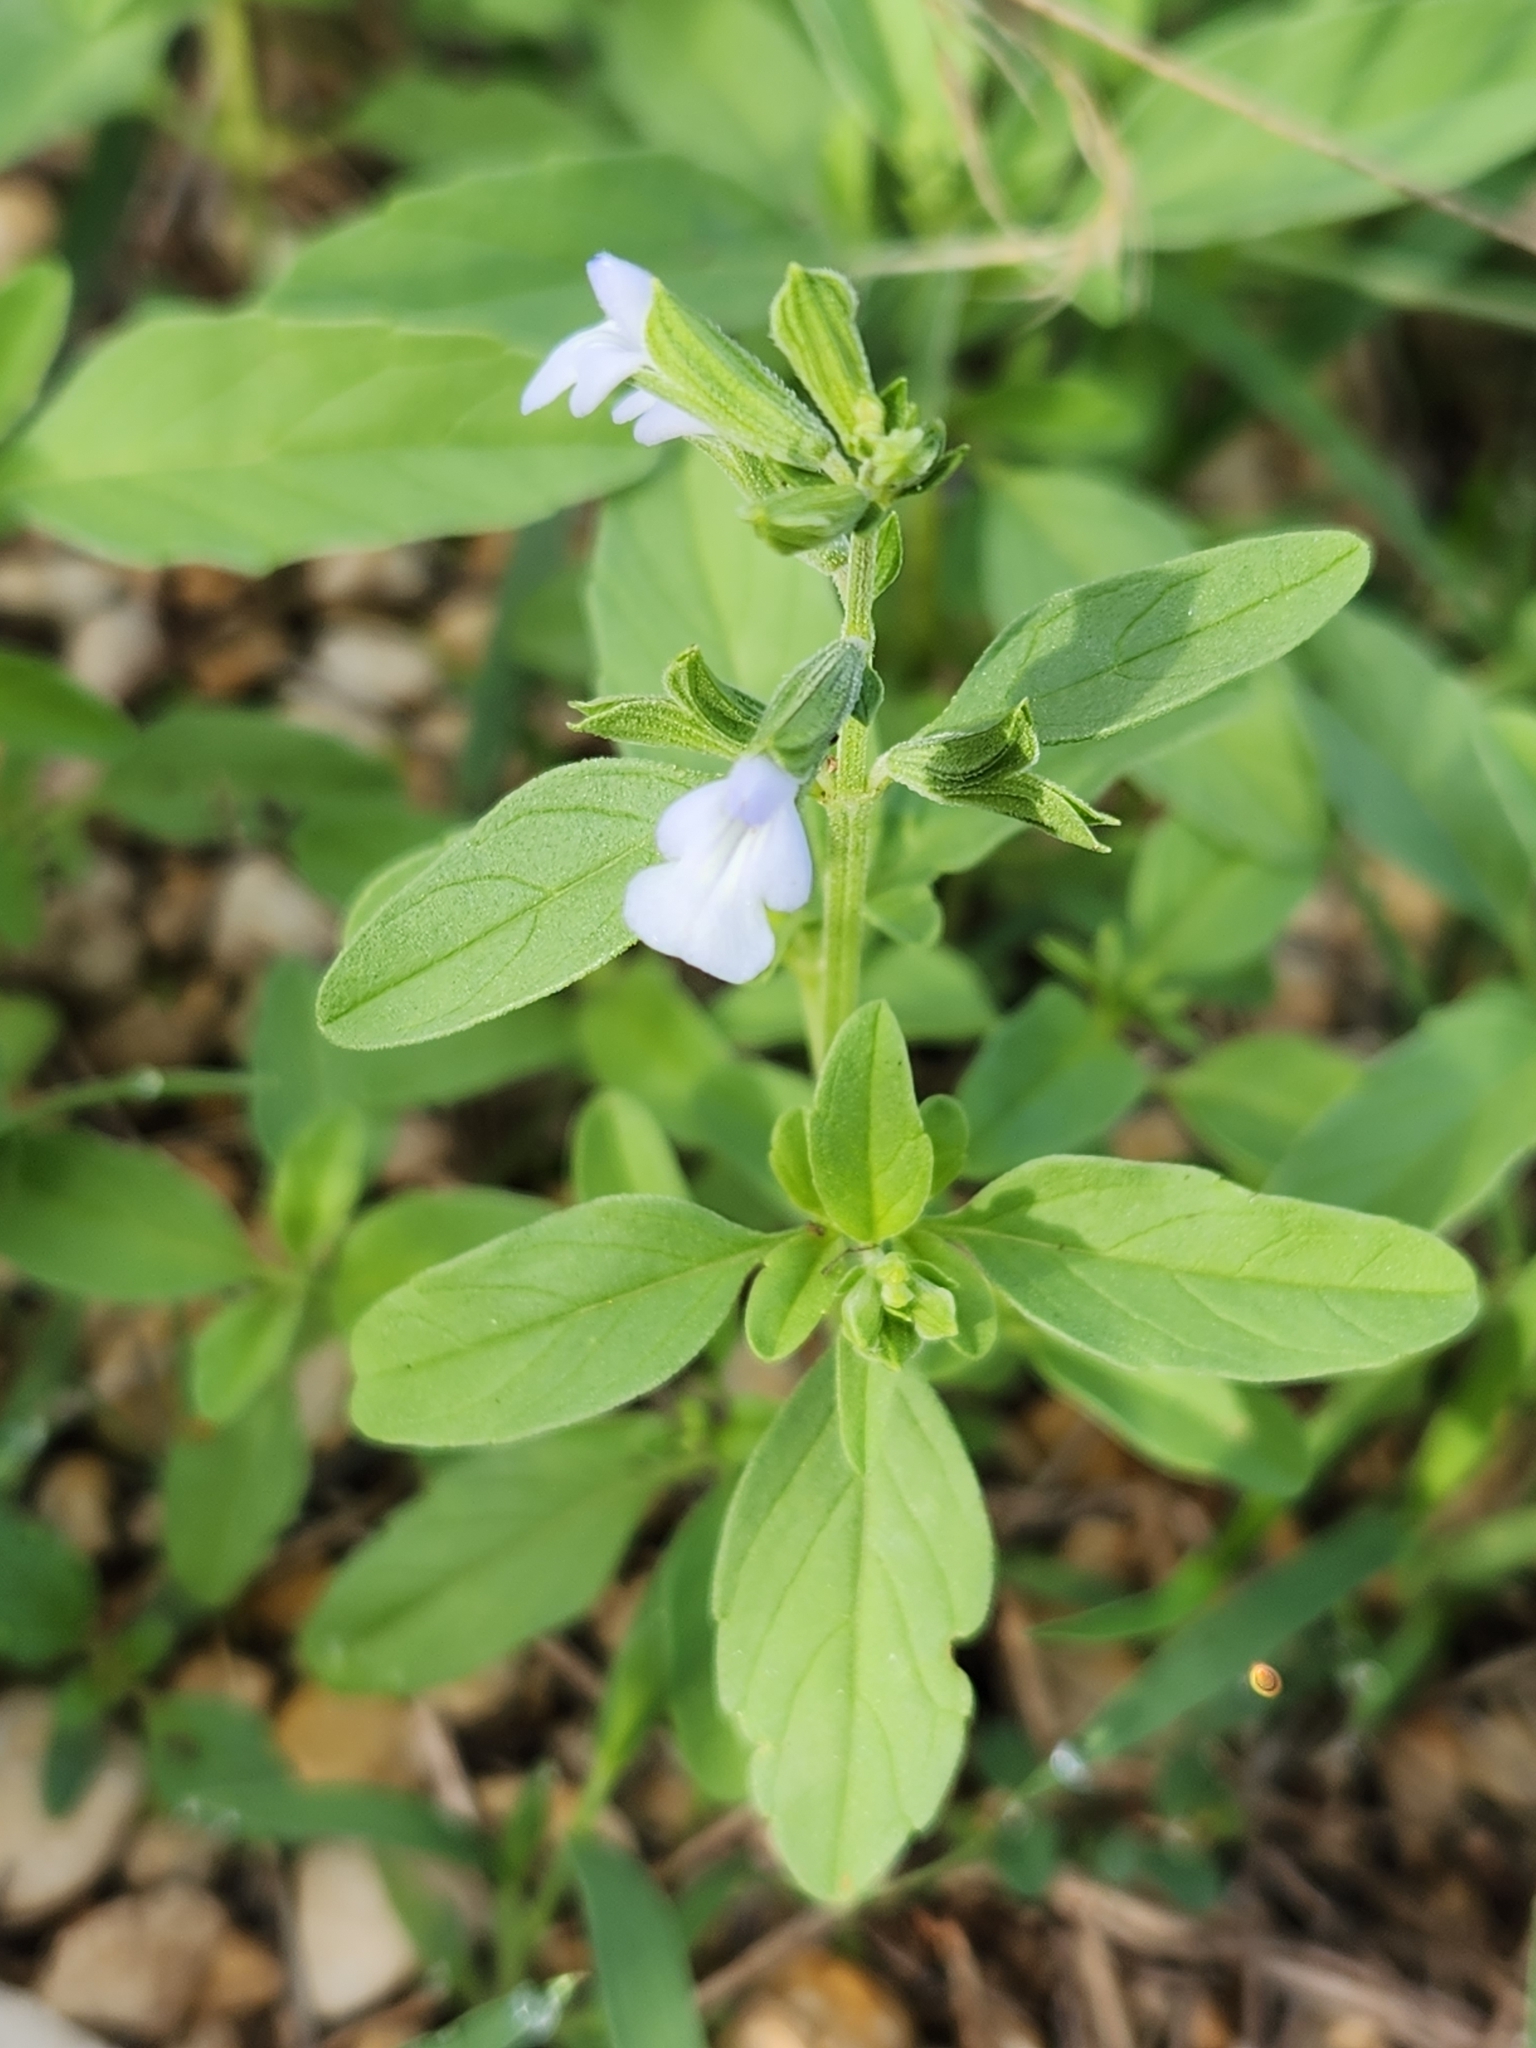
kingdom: Plantae
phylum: Tracheophyta
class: Magnoliopsida
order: Lamiales
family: Lamiaceae
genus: Salvia
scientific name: Salvia reflexa
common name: Mintweed
